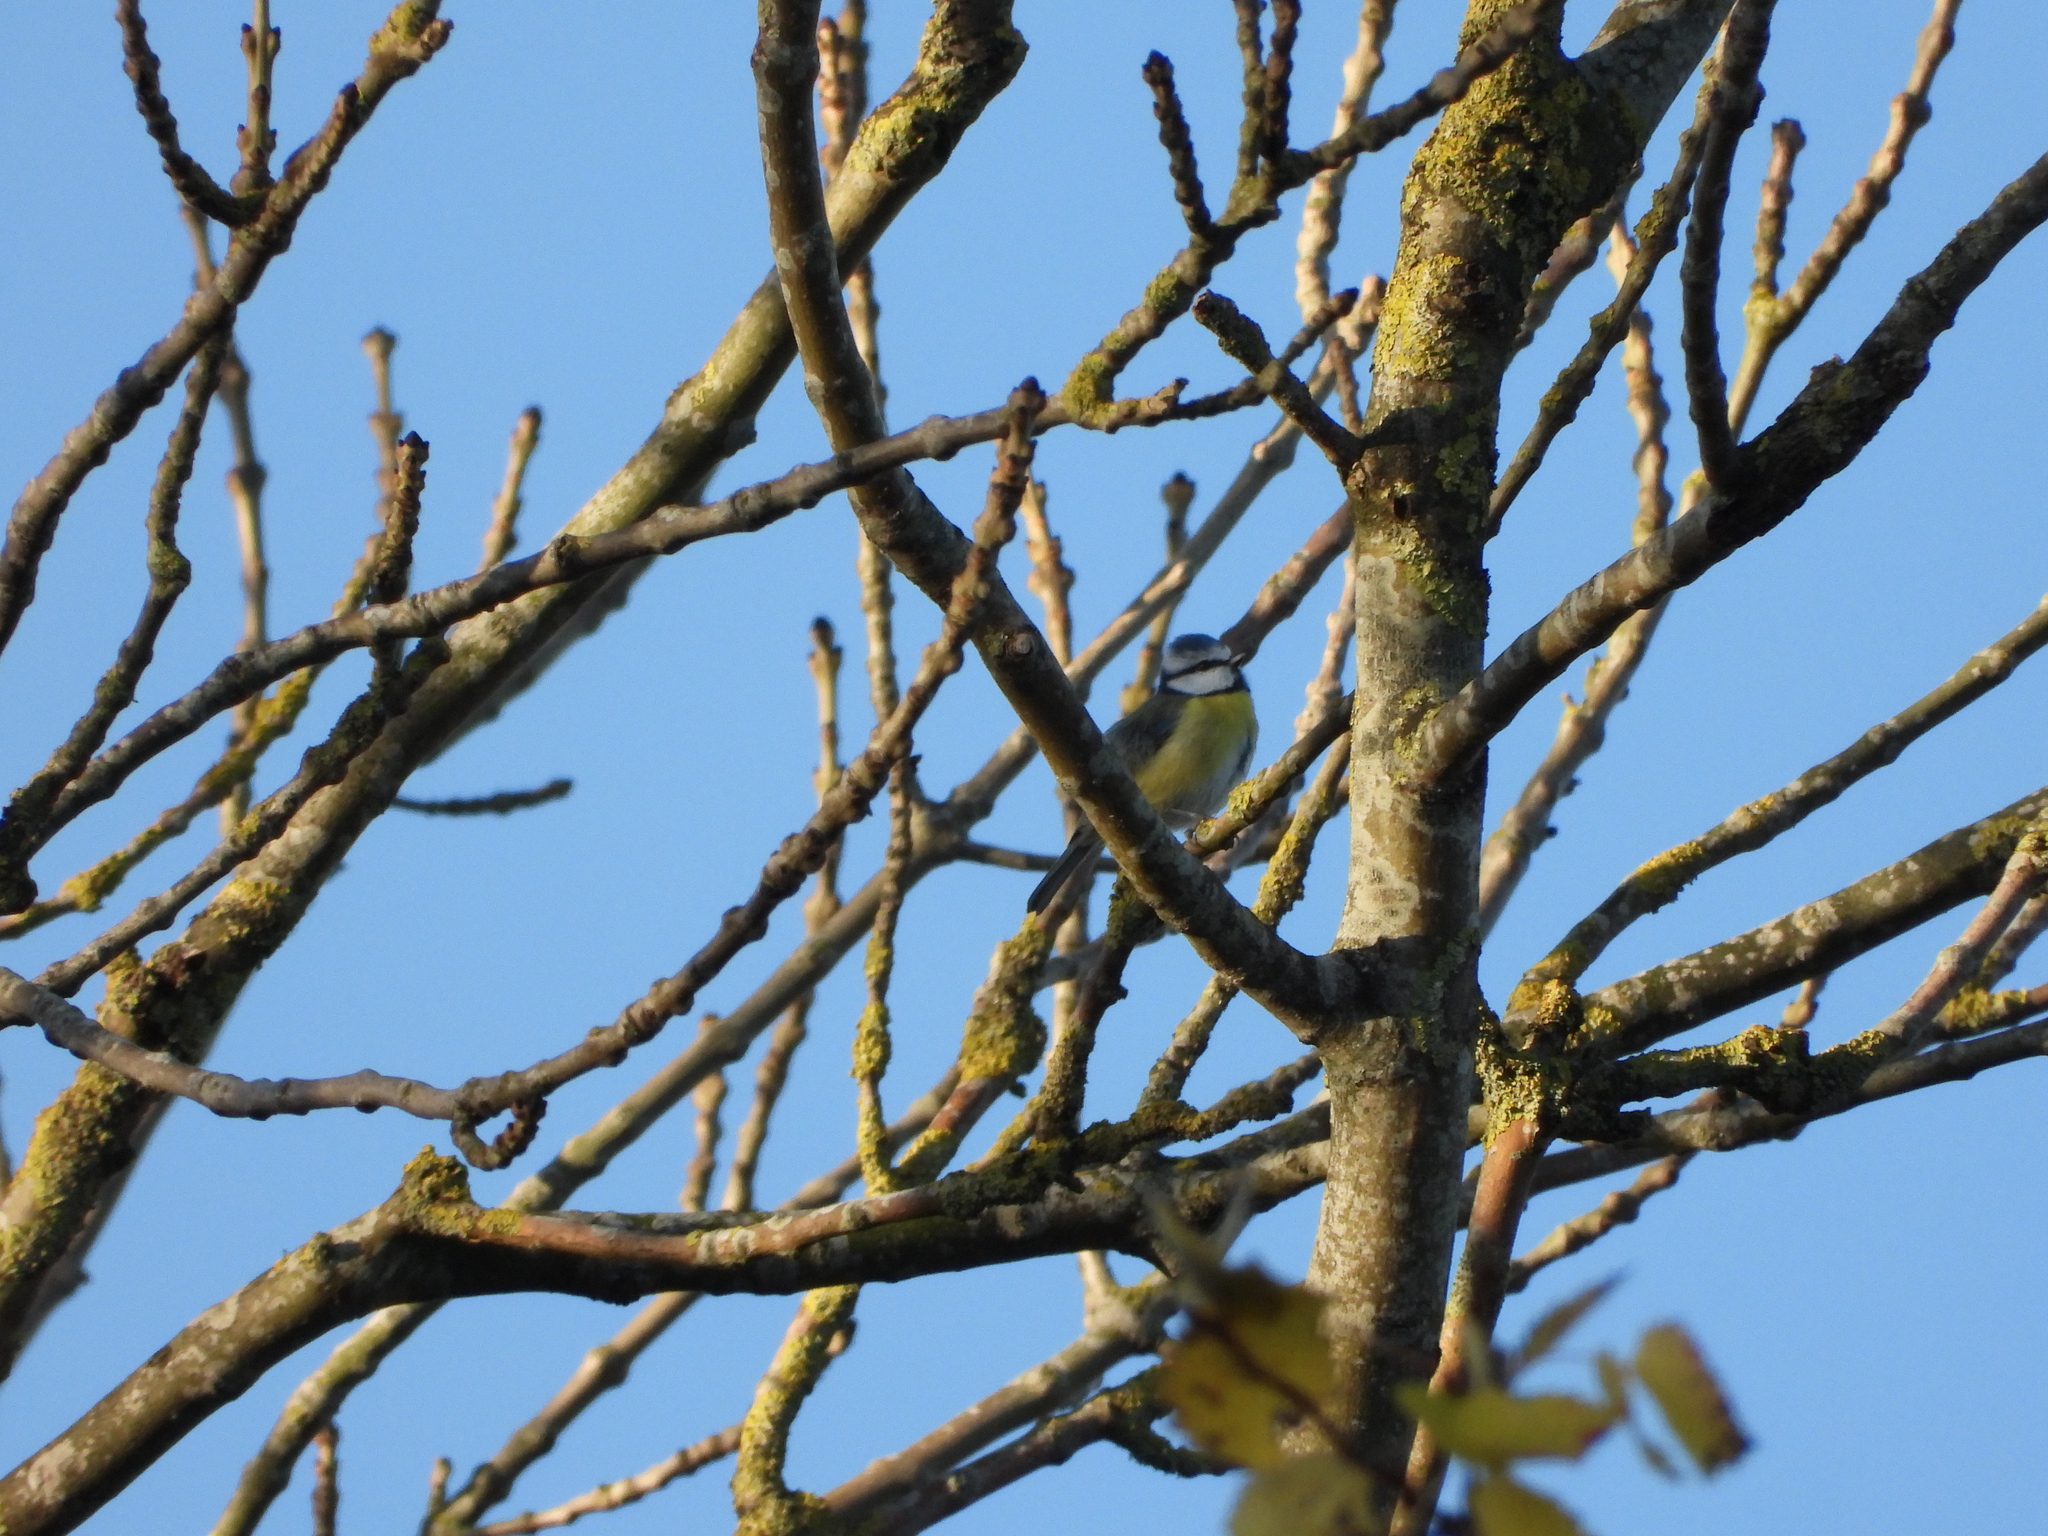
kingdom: Animalia
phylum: Chordata
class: Aves
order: Passeriformes
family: Paridae
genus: Cyanistes
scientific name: Cyanistes caeruleus
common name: Eurasian blue tit
